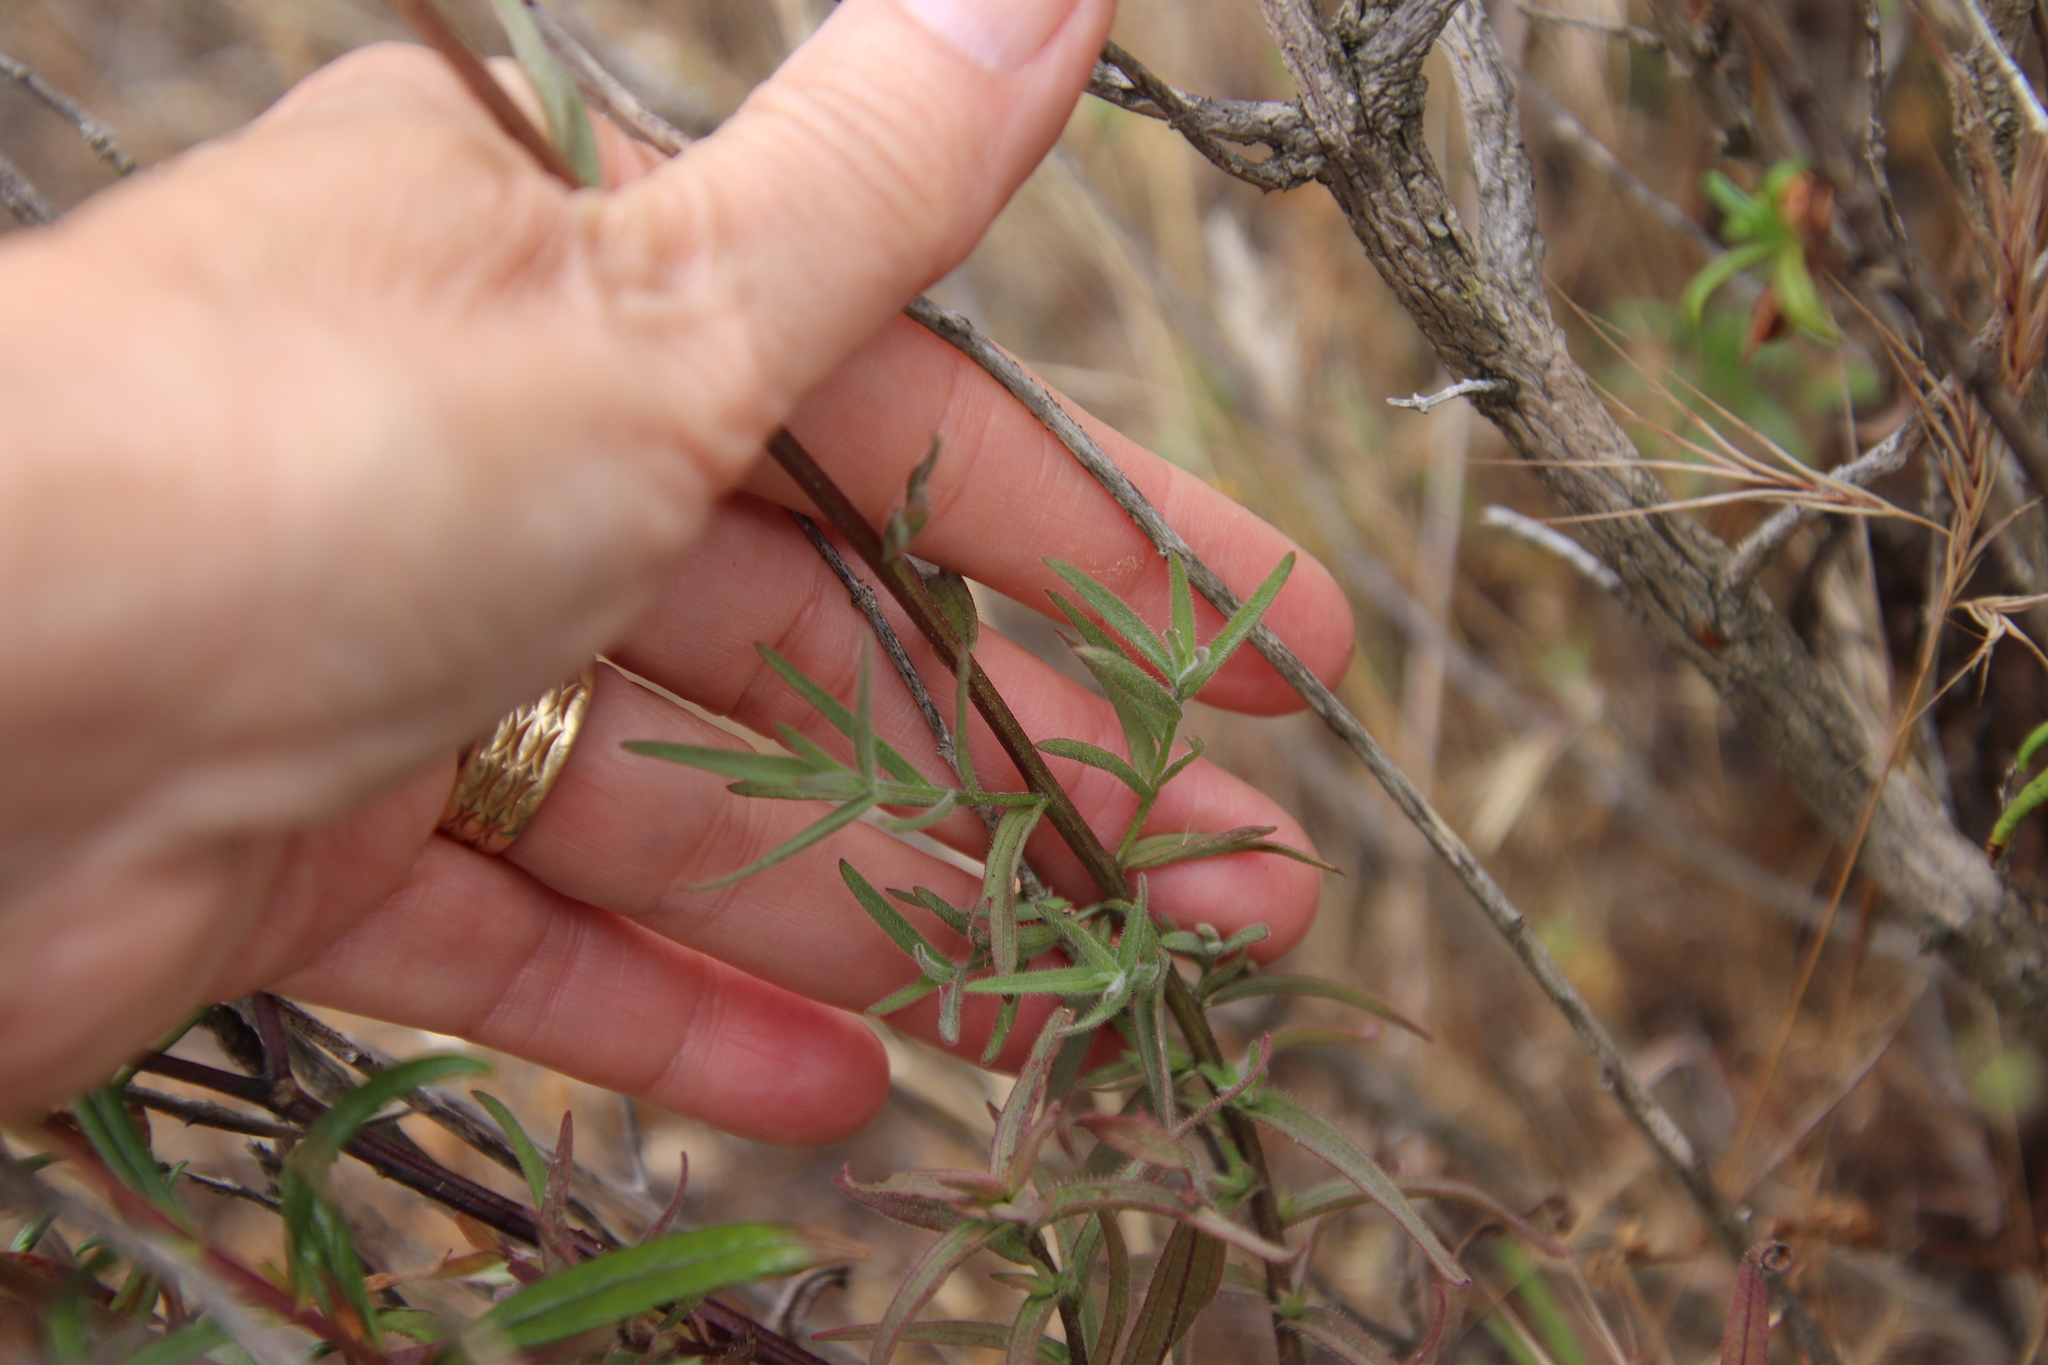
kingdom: Plantae
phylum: Tracheophyta
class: Magnoliopsida
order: Lamiales
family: Orobanchaceae
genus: Castilleja
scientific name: Castilleja affinis
